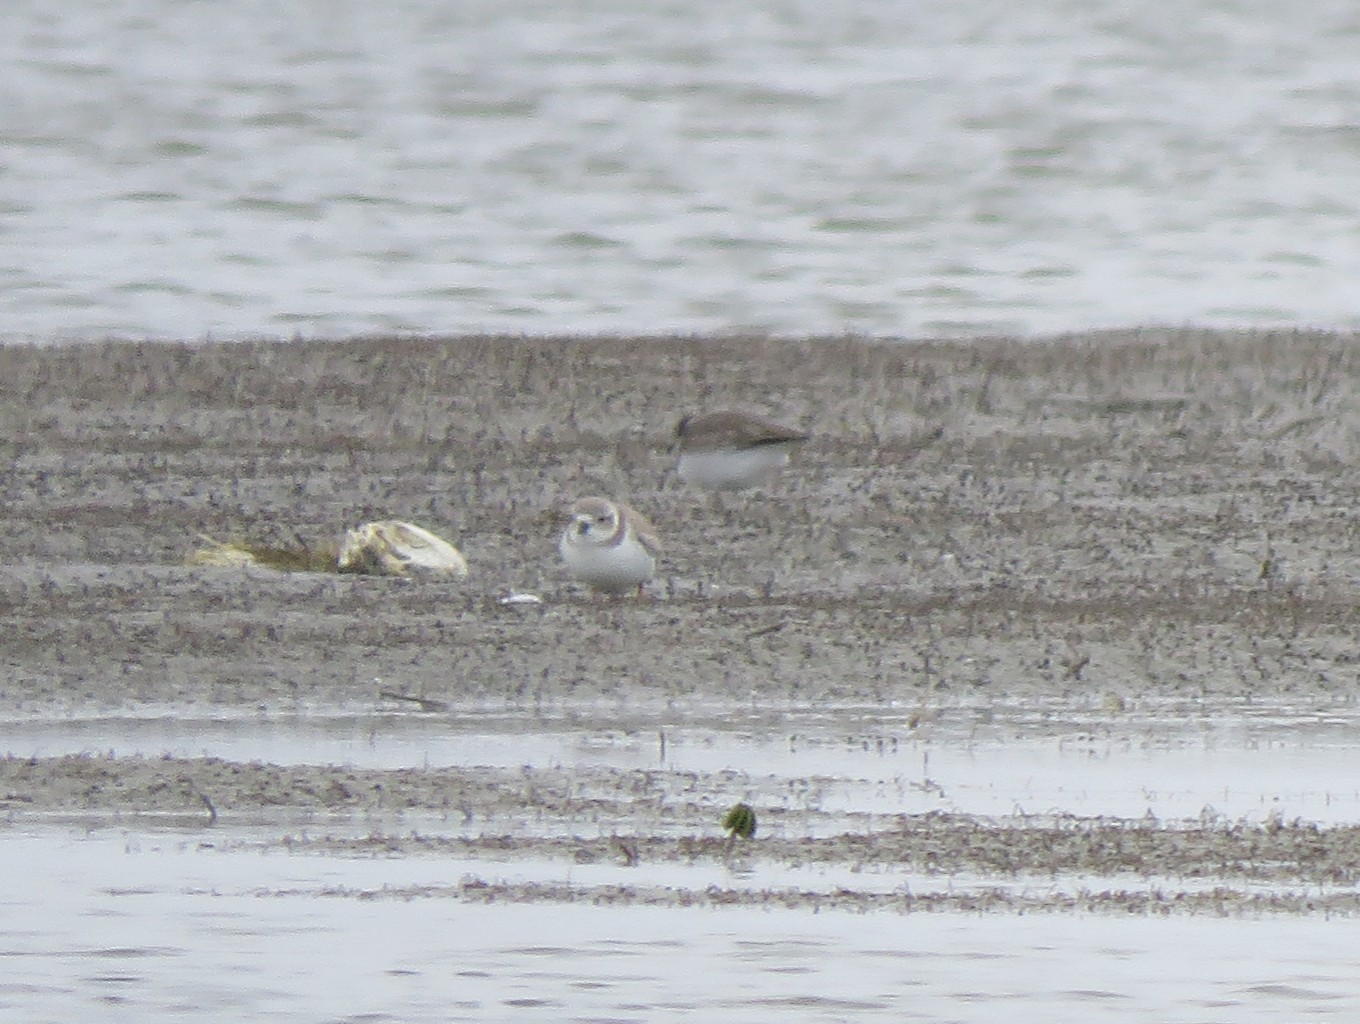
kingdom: Animalia
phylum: Chordata
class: Aves
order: Charadriiformes
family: Charadriidae
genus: Charadrius
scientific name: Charadrius melodus
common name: Piping plover
